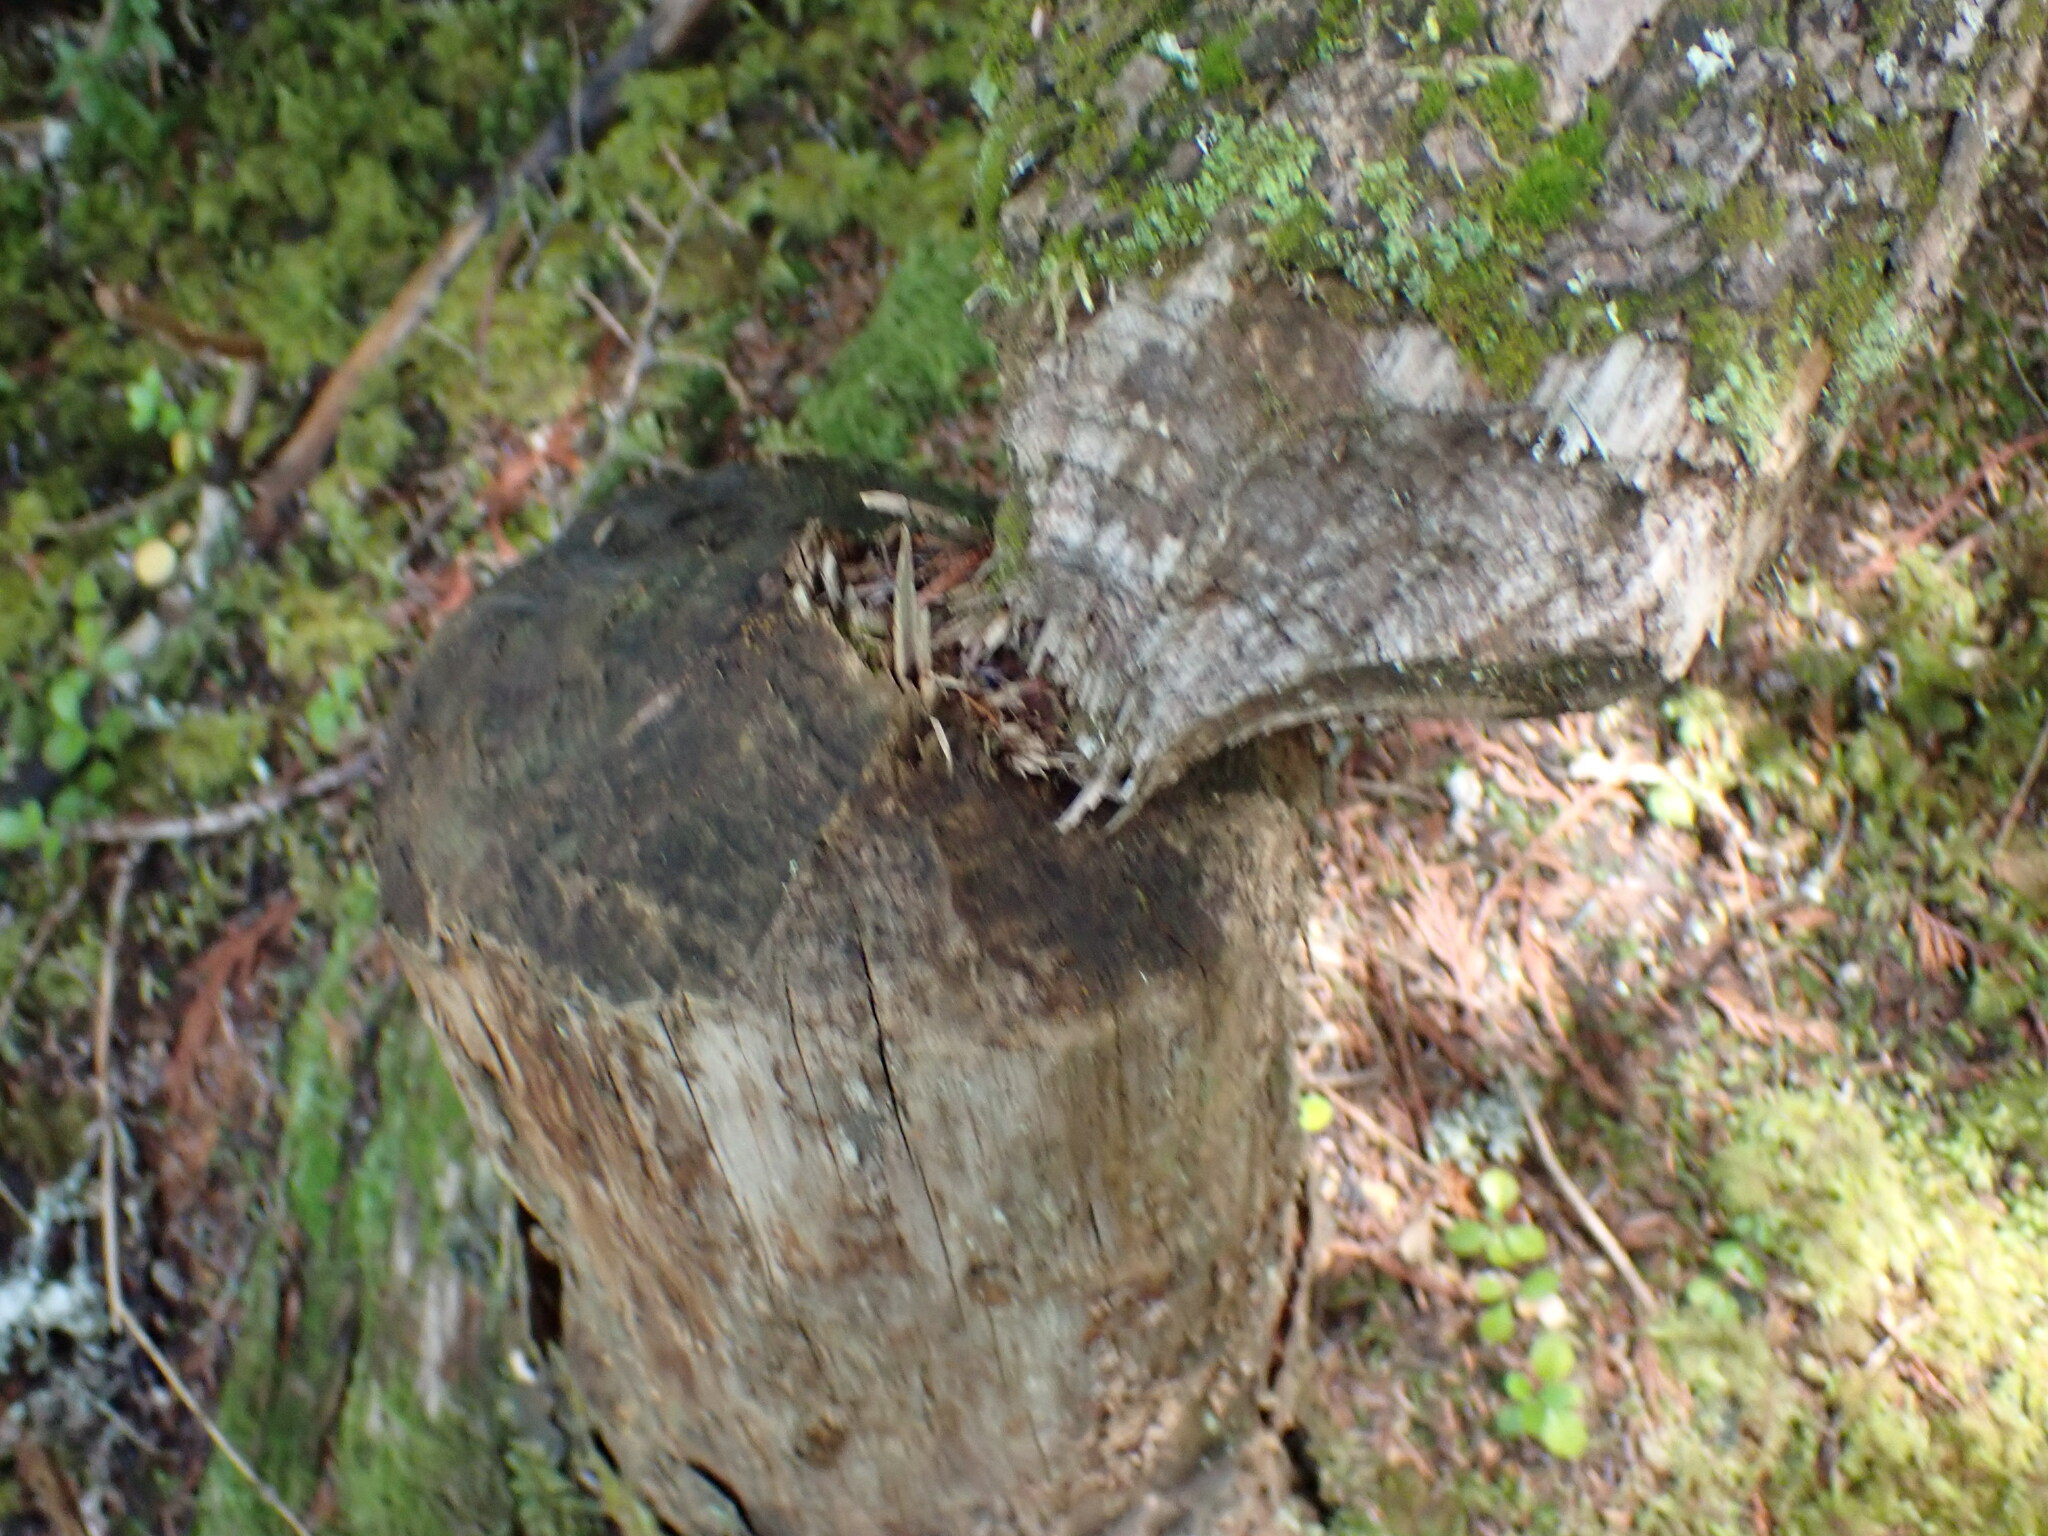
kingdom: Animalia
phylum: Chordata
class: Mammalia
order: Rodentia
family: Castoridae
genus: Castor
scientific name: Castor canadensis
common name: American beaver
